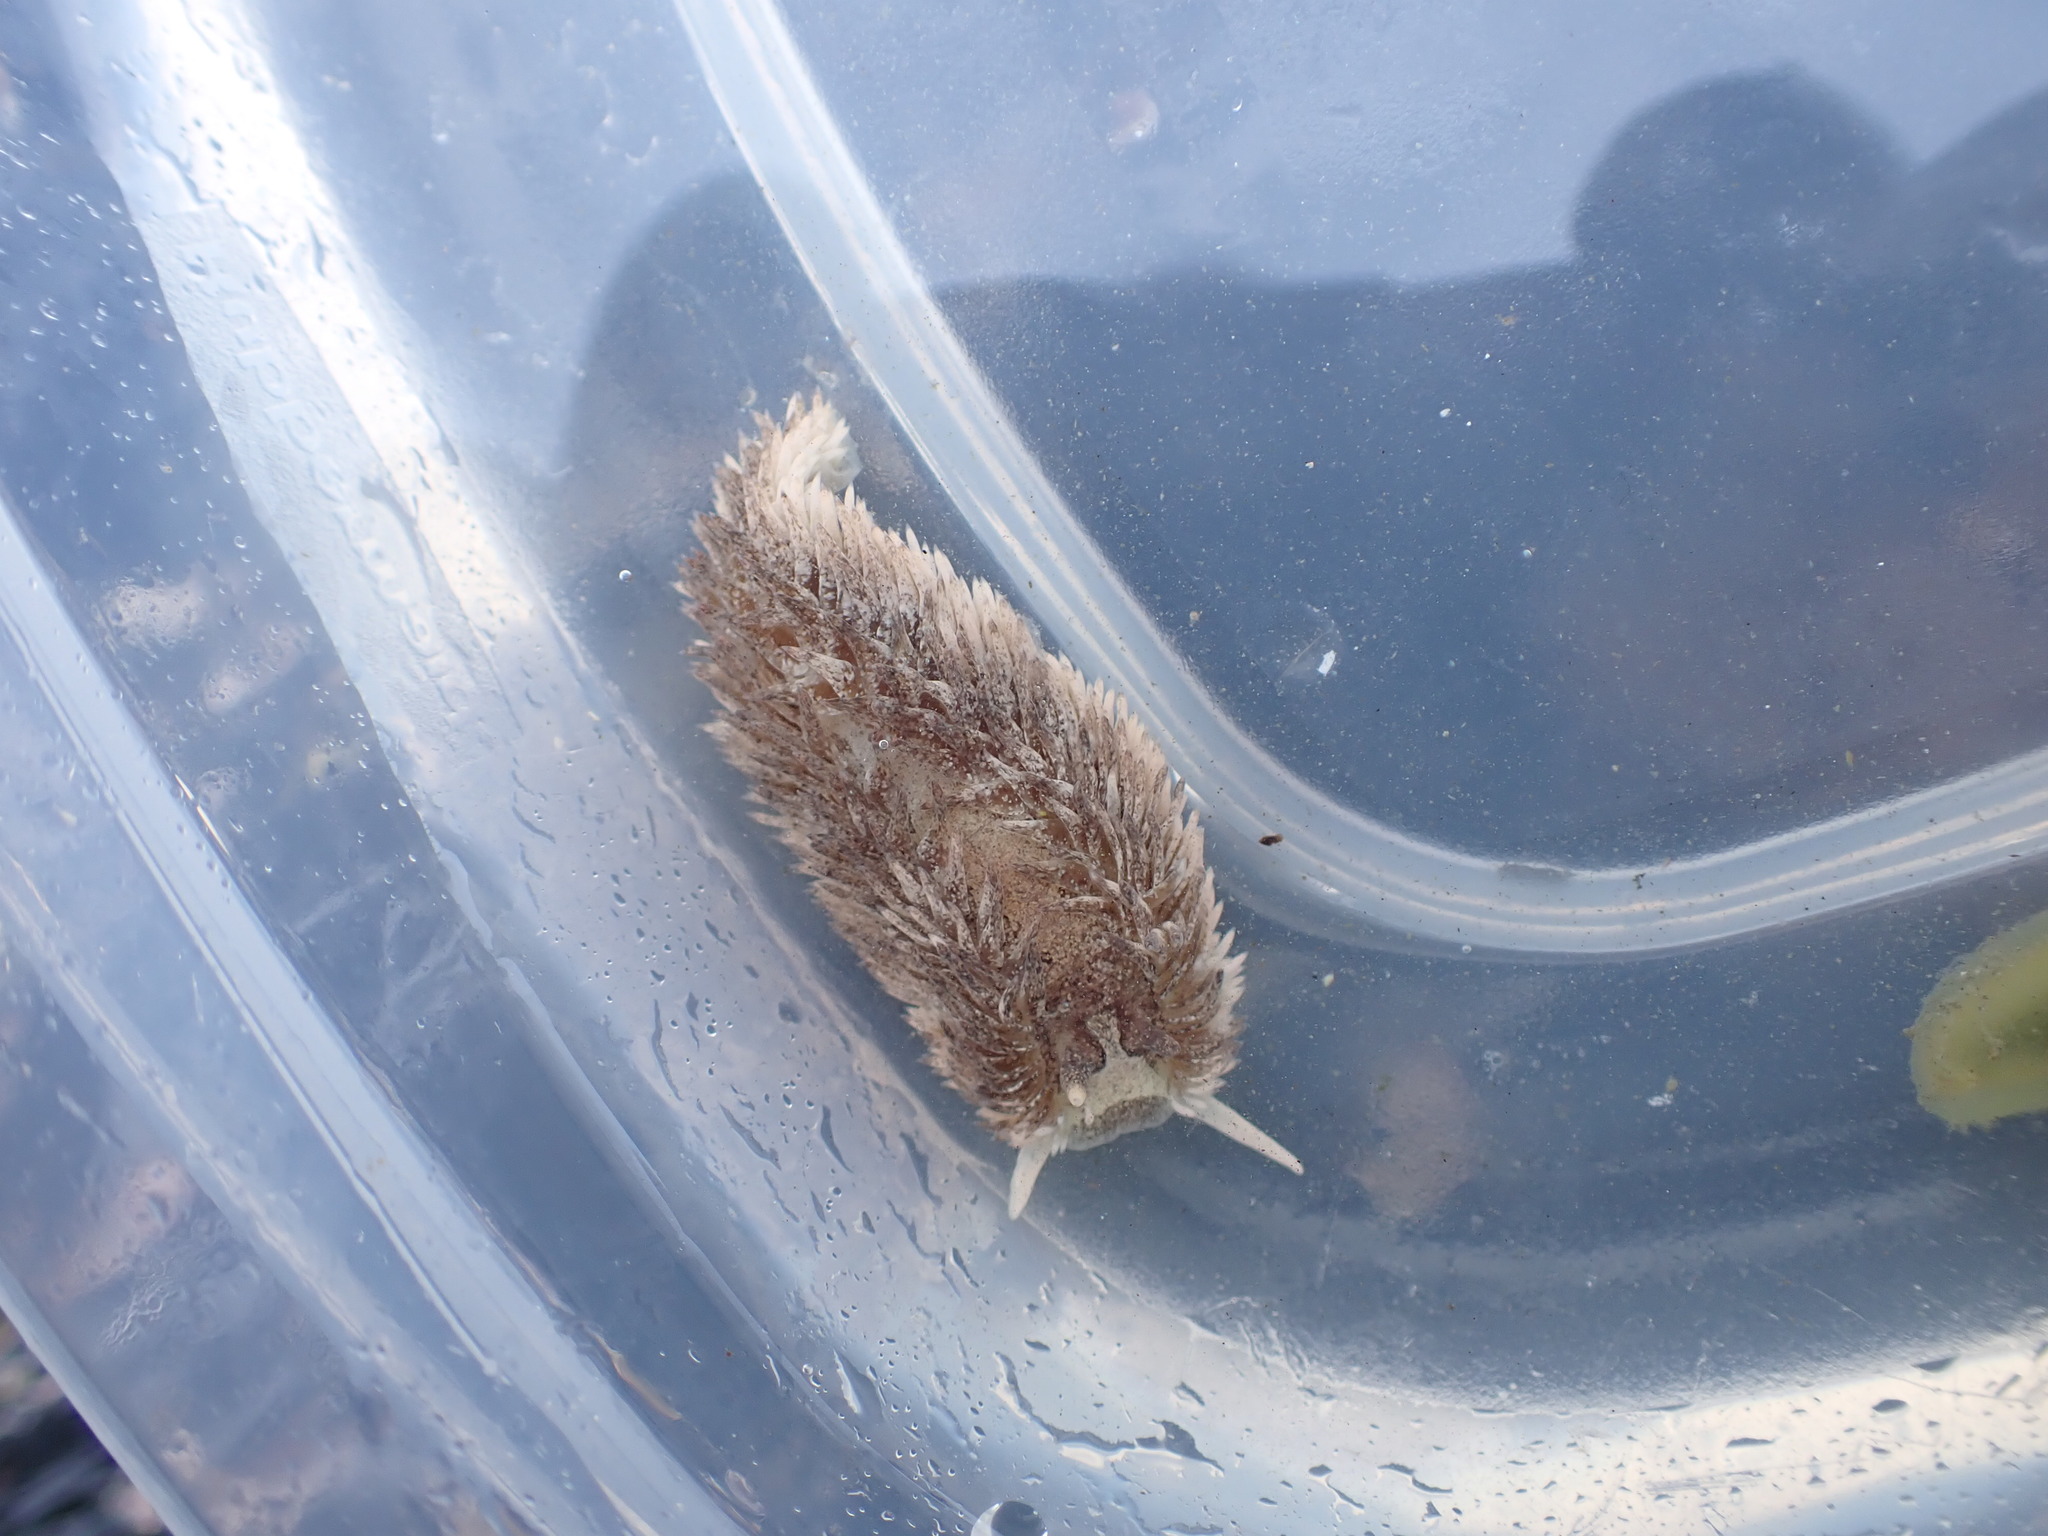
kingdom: Animalia
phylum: Mollusca
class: Gastropoda
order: Nudibranchia
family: Aeolidiidae
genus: Aeolidia
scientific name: Aeolidia papillosa
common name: Common grey sea slug
